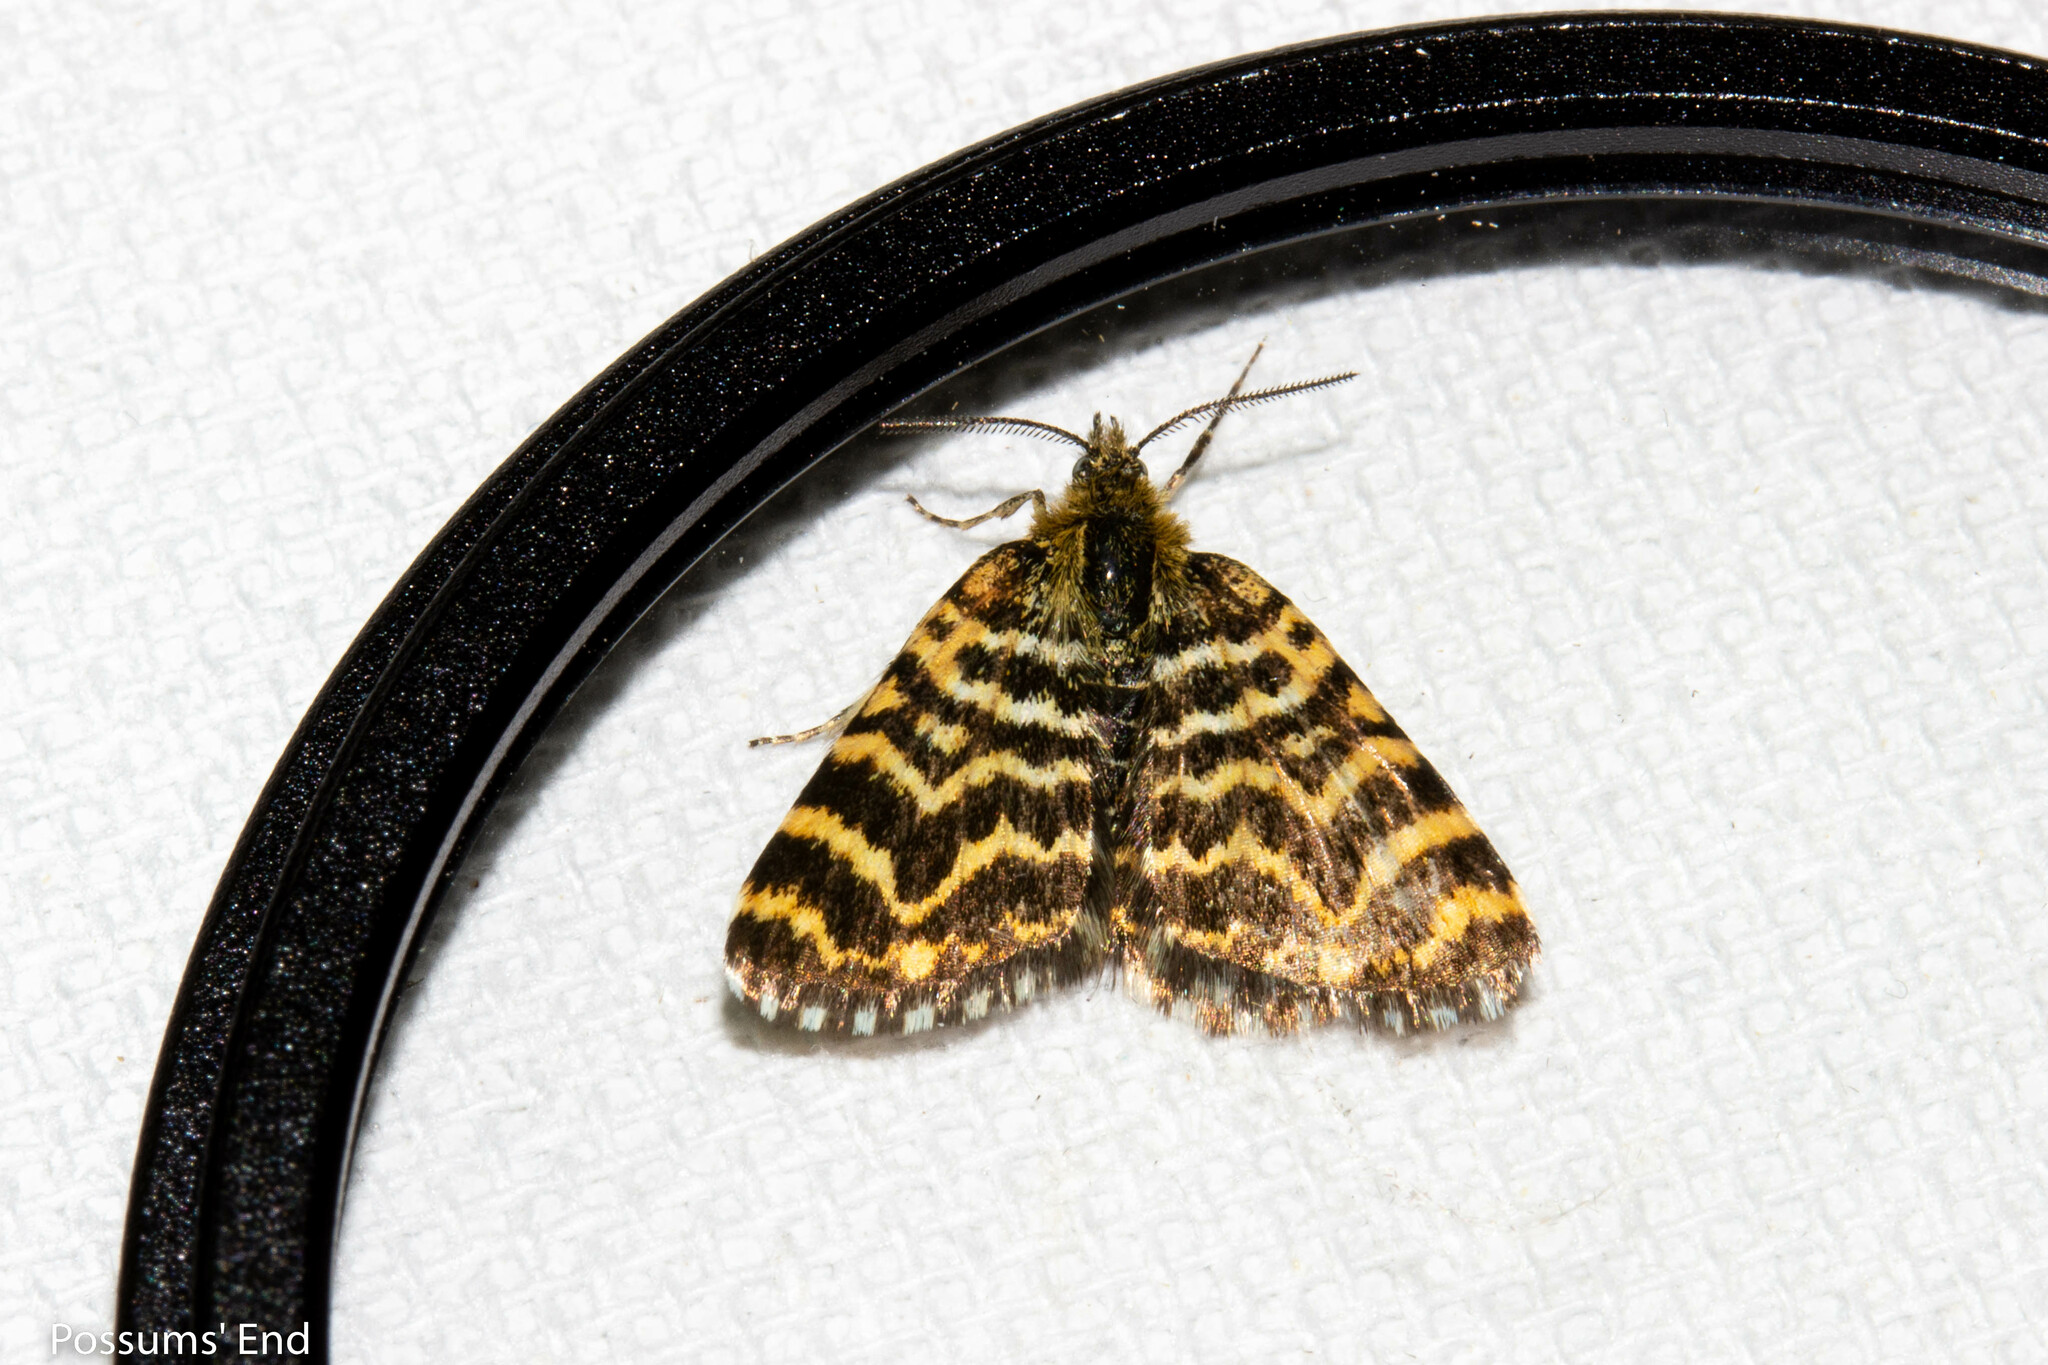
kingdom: Animalia
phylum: Arthropoda
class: Insecta
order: Lepidoptera
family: Geometridae
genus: Notoreas
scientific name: Notoreas galaxias
